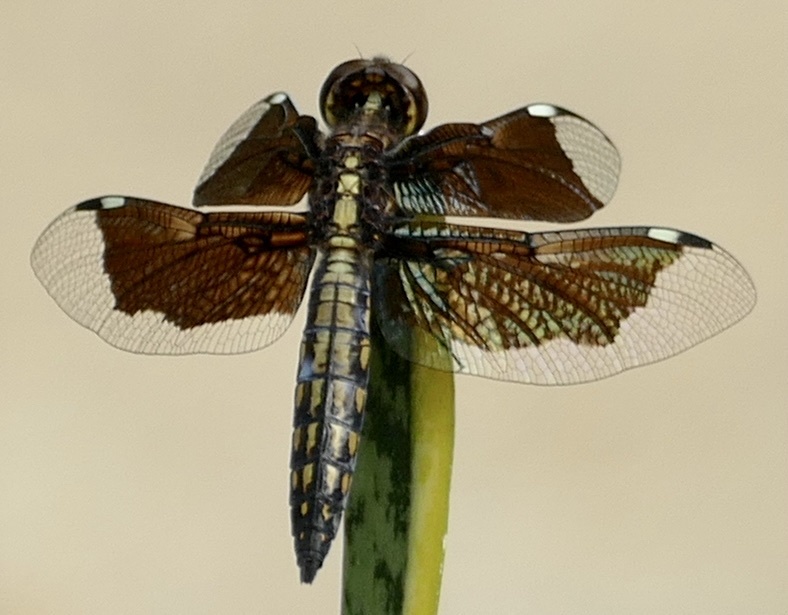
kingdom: Animalia
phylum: Arthropoda
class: Insecta
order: Odonata
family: Libellulidae
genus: Palpopleura
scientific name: Palpopleura lucia
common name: Lucia widow
